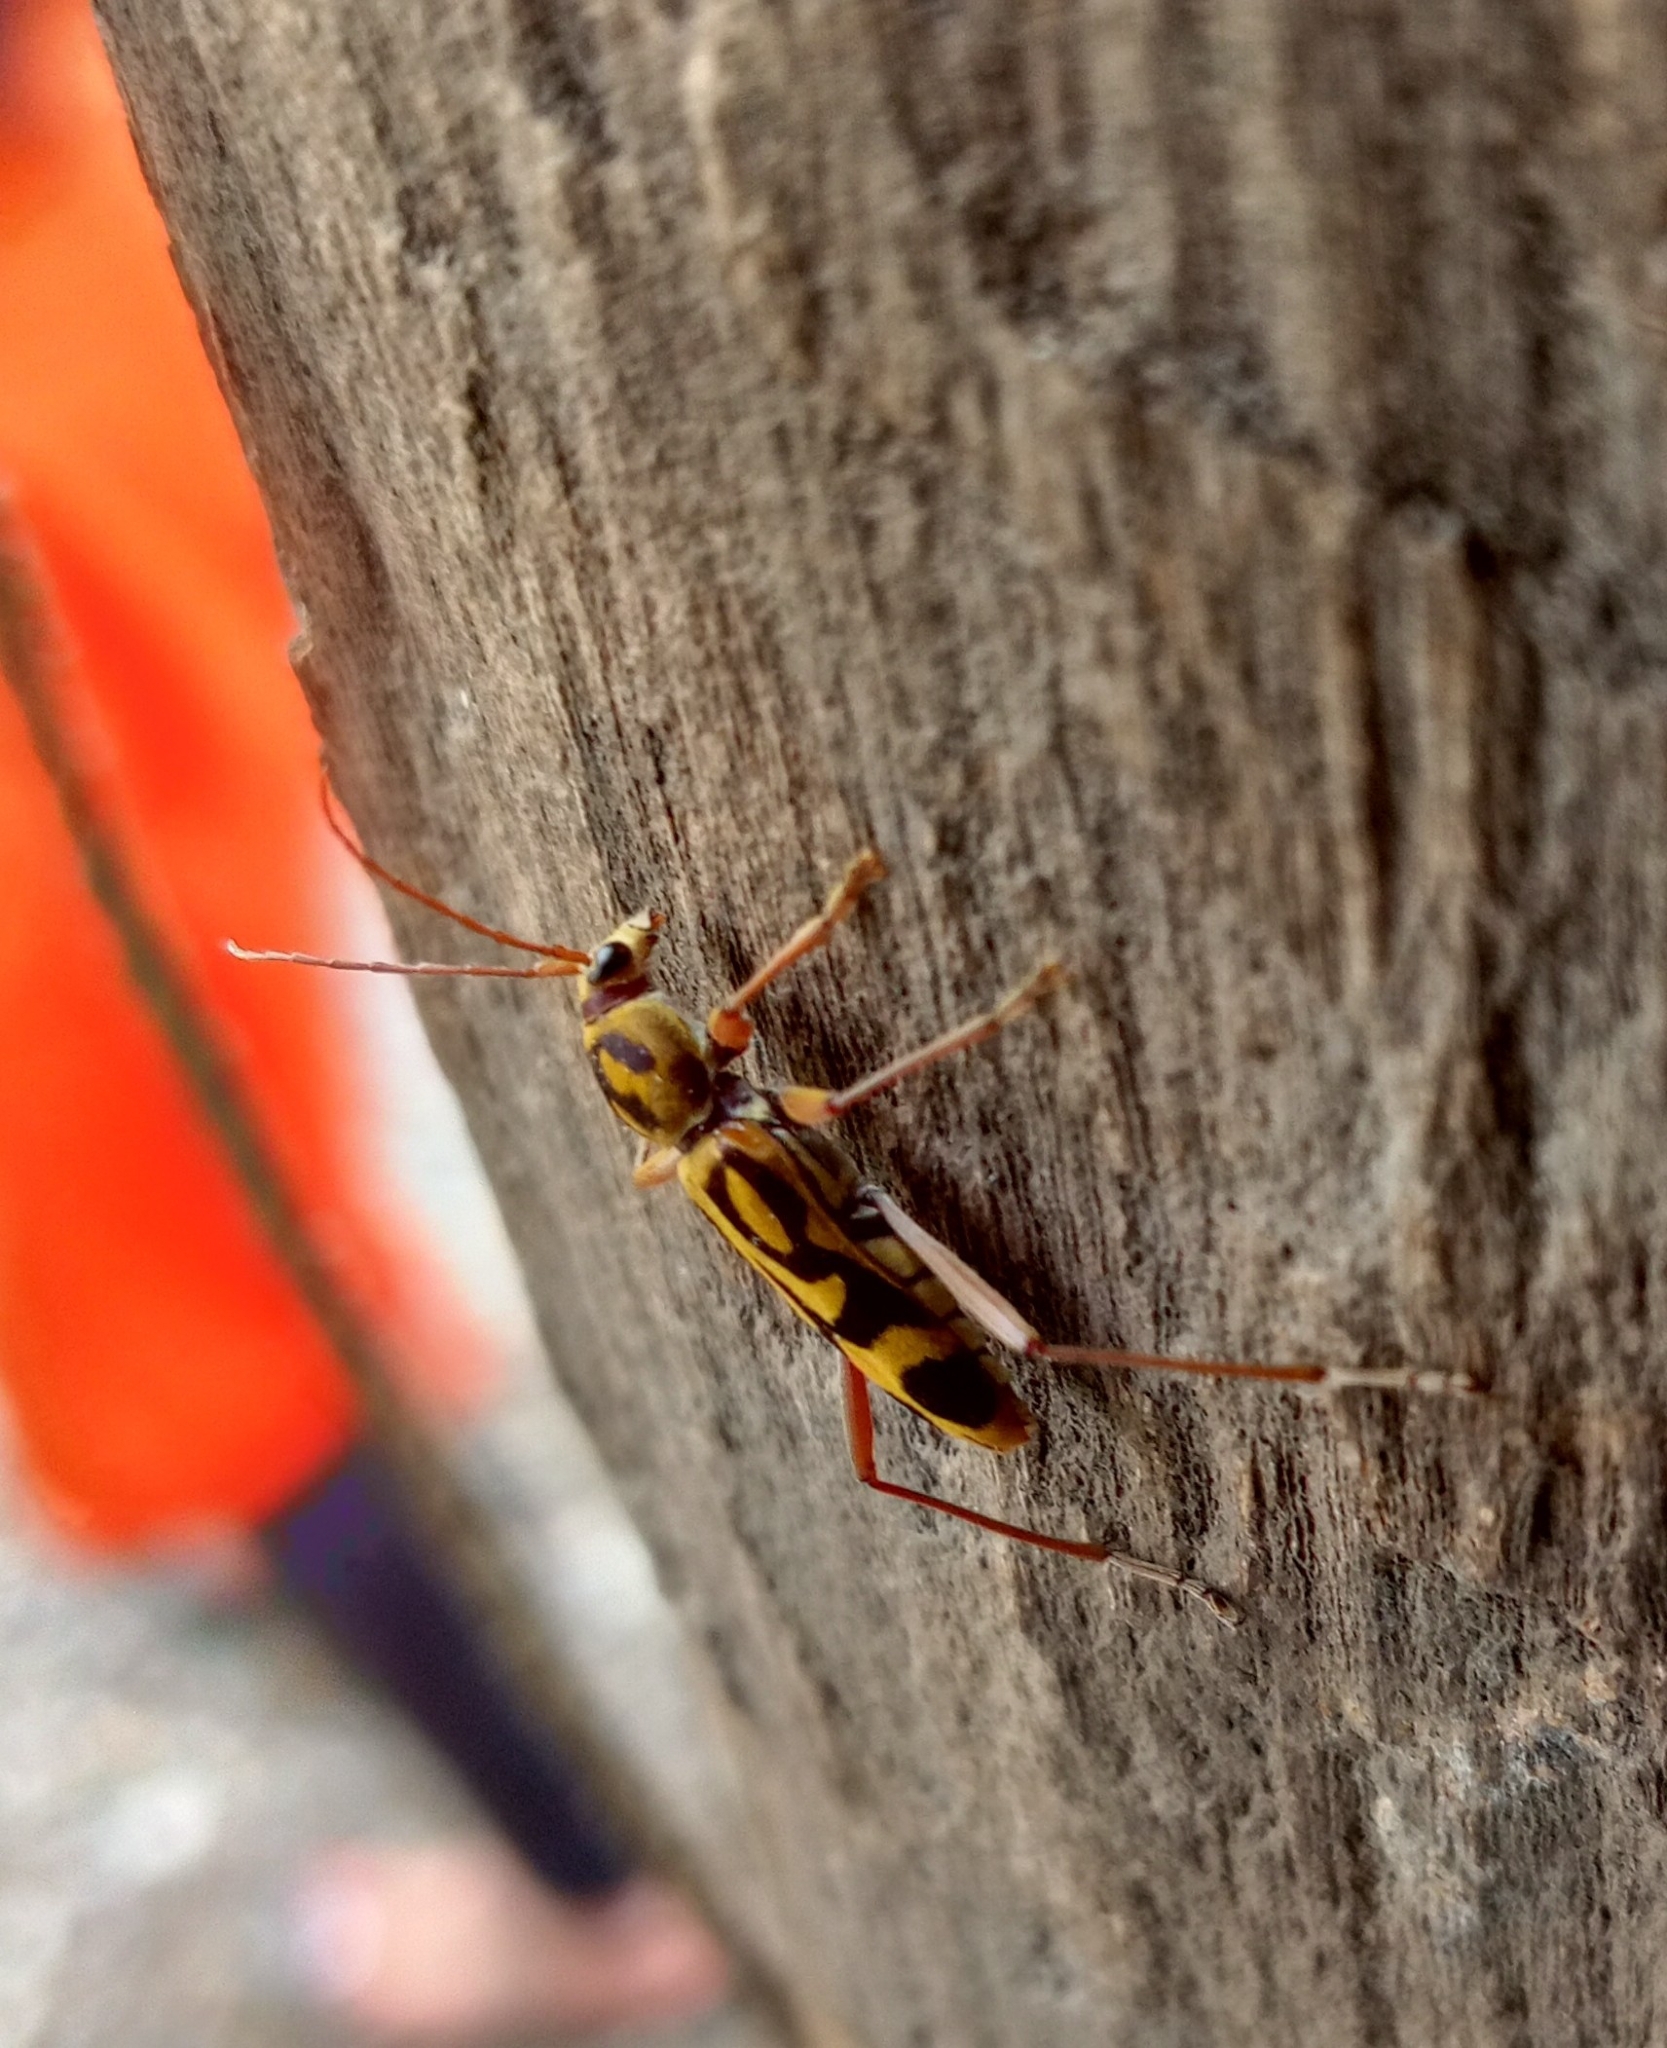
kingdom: Animalia
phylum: Arthropoda
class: Insecta
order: Coleoptera
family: Cerambycidae
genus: Chlorophorus
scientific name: Chlorophorus annularis
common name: Bamboo longhorn beetle
